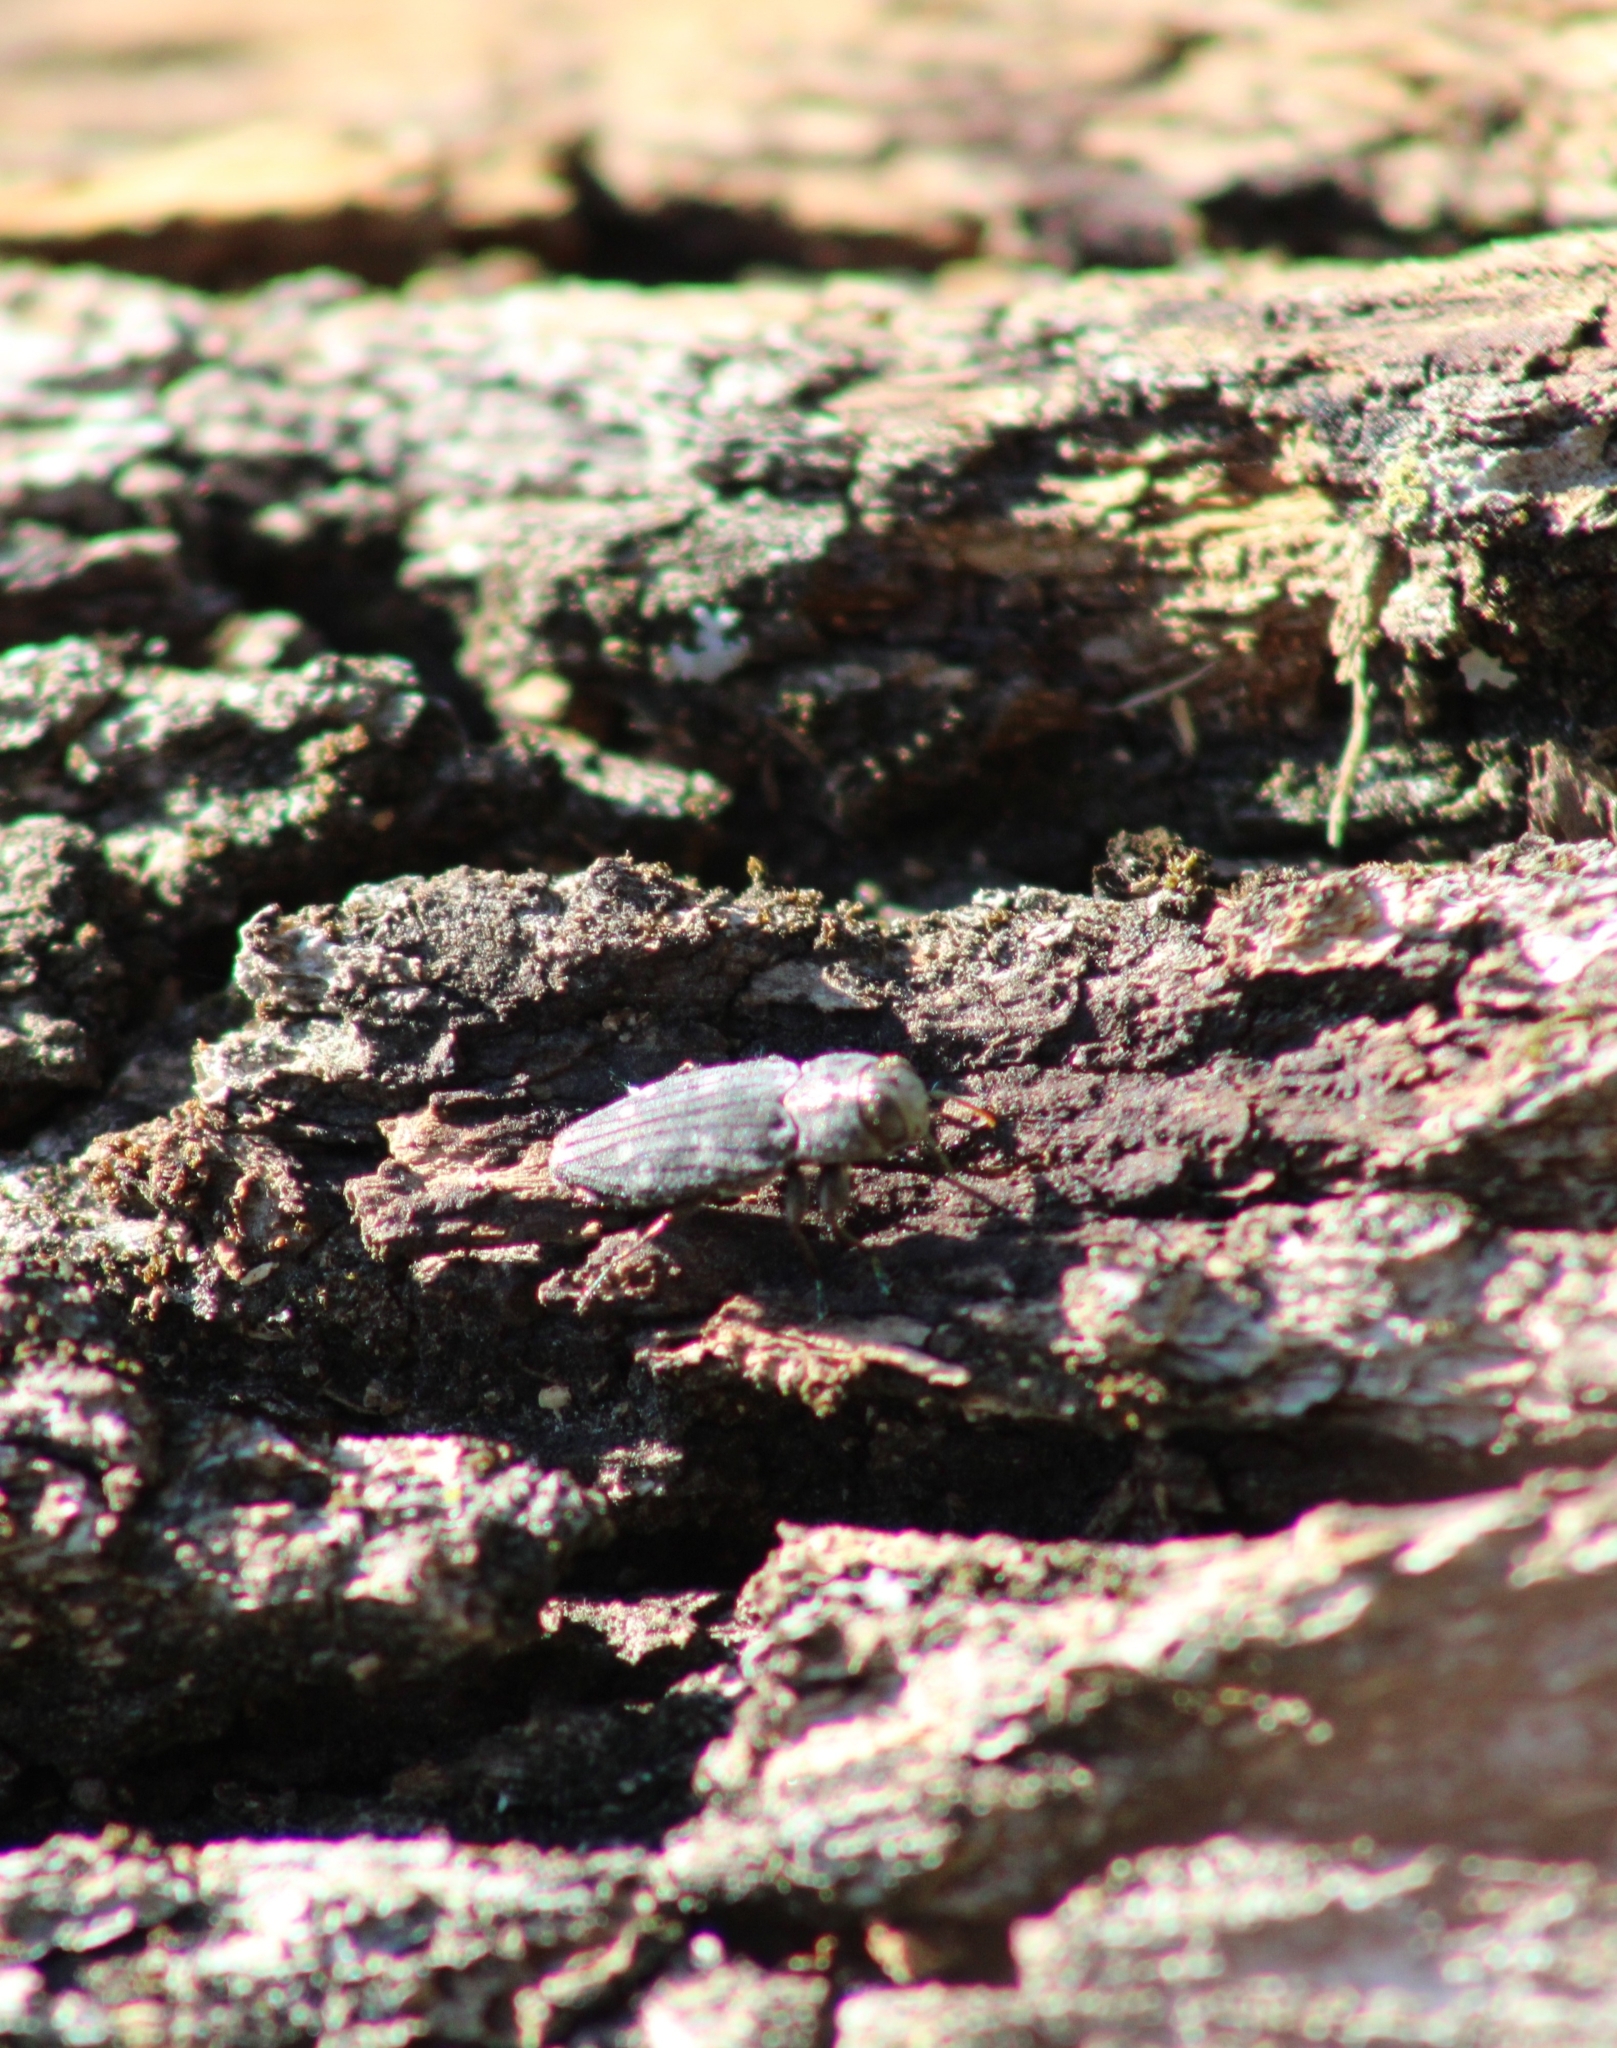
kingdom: Animalia
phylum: Arthropoda
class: Insecta
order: Coleoptera
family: Buprestidae
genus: Chrysobothris
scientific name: Chrysobothris viridiceps
